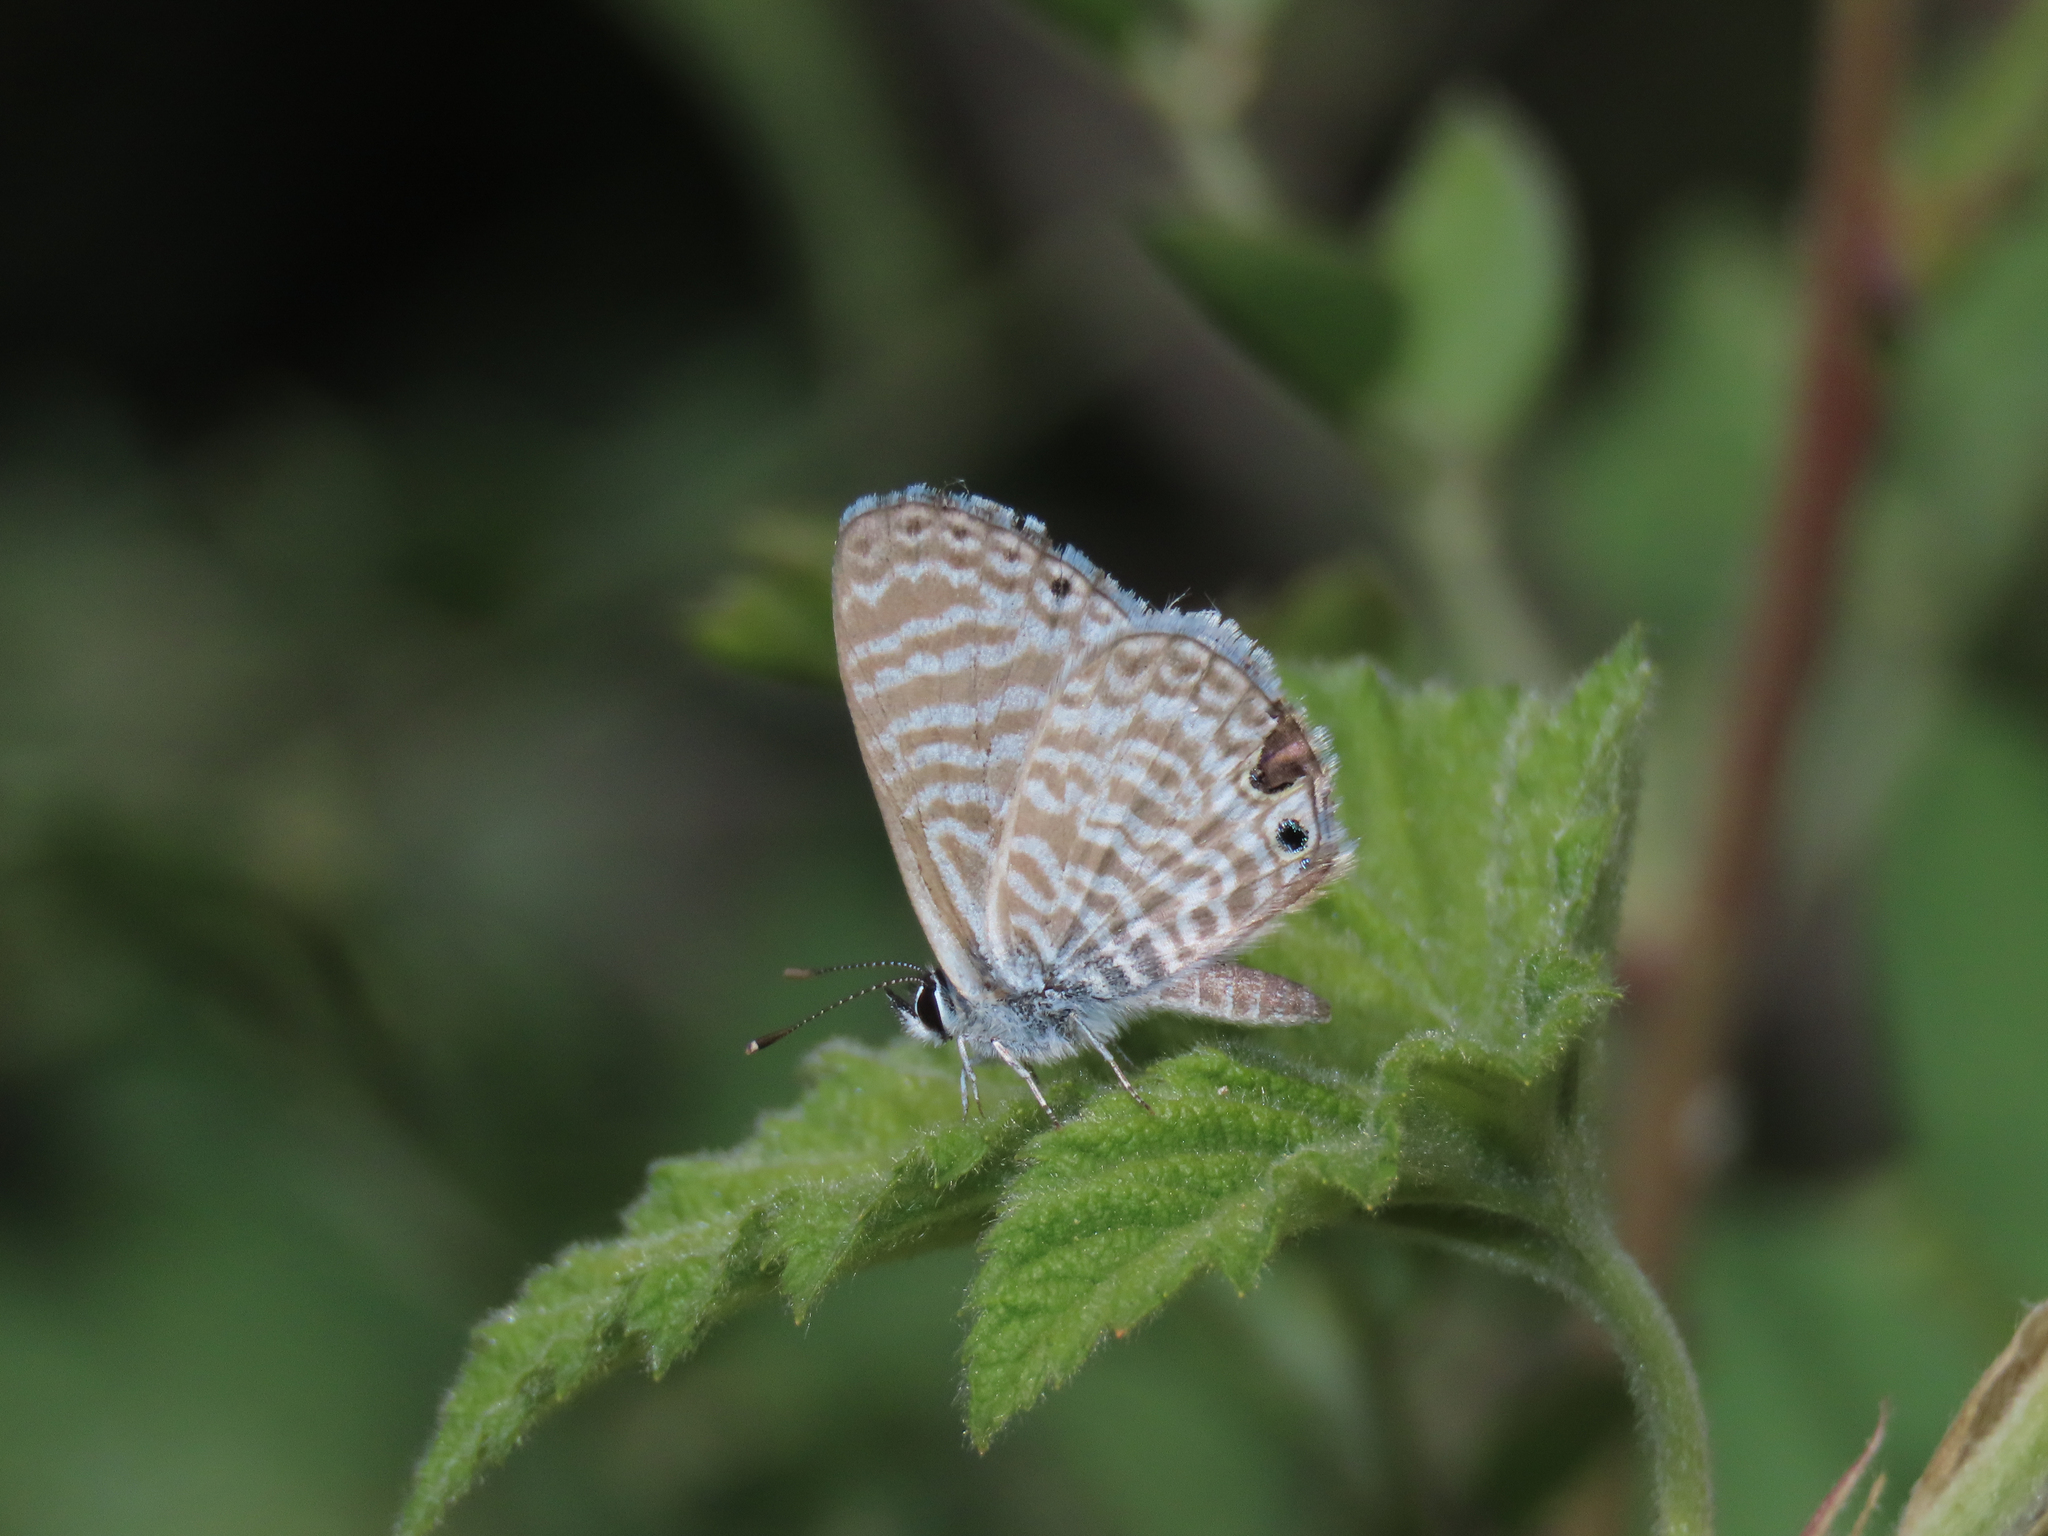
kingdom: Animalia
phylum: Arthropoda
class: Insecta
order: Lepidoptera
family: Lycaenidae
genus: Leptotes
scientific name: Leptotes marina
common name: Marine blue
